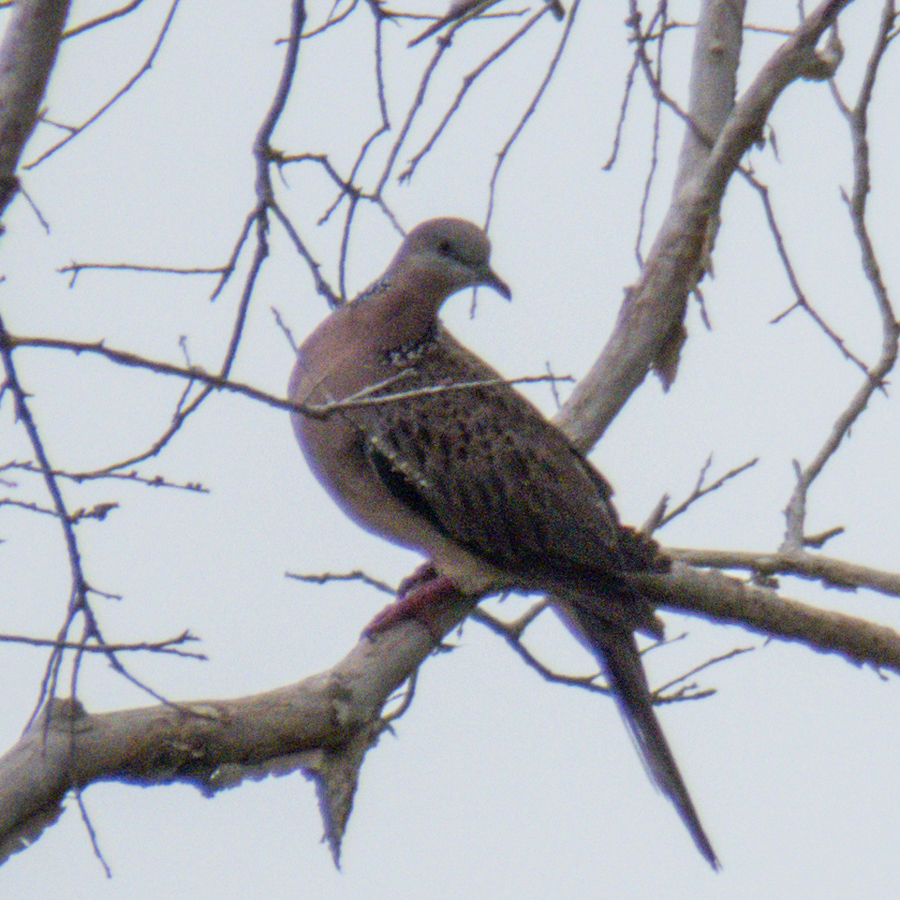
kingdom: Animalia
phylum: Chordata
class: Aves
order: Columbiformes
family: Columbidae
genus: Spilopelia
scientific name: Spilopelia chinensis
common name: Spotted dove
